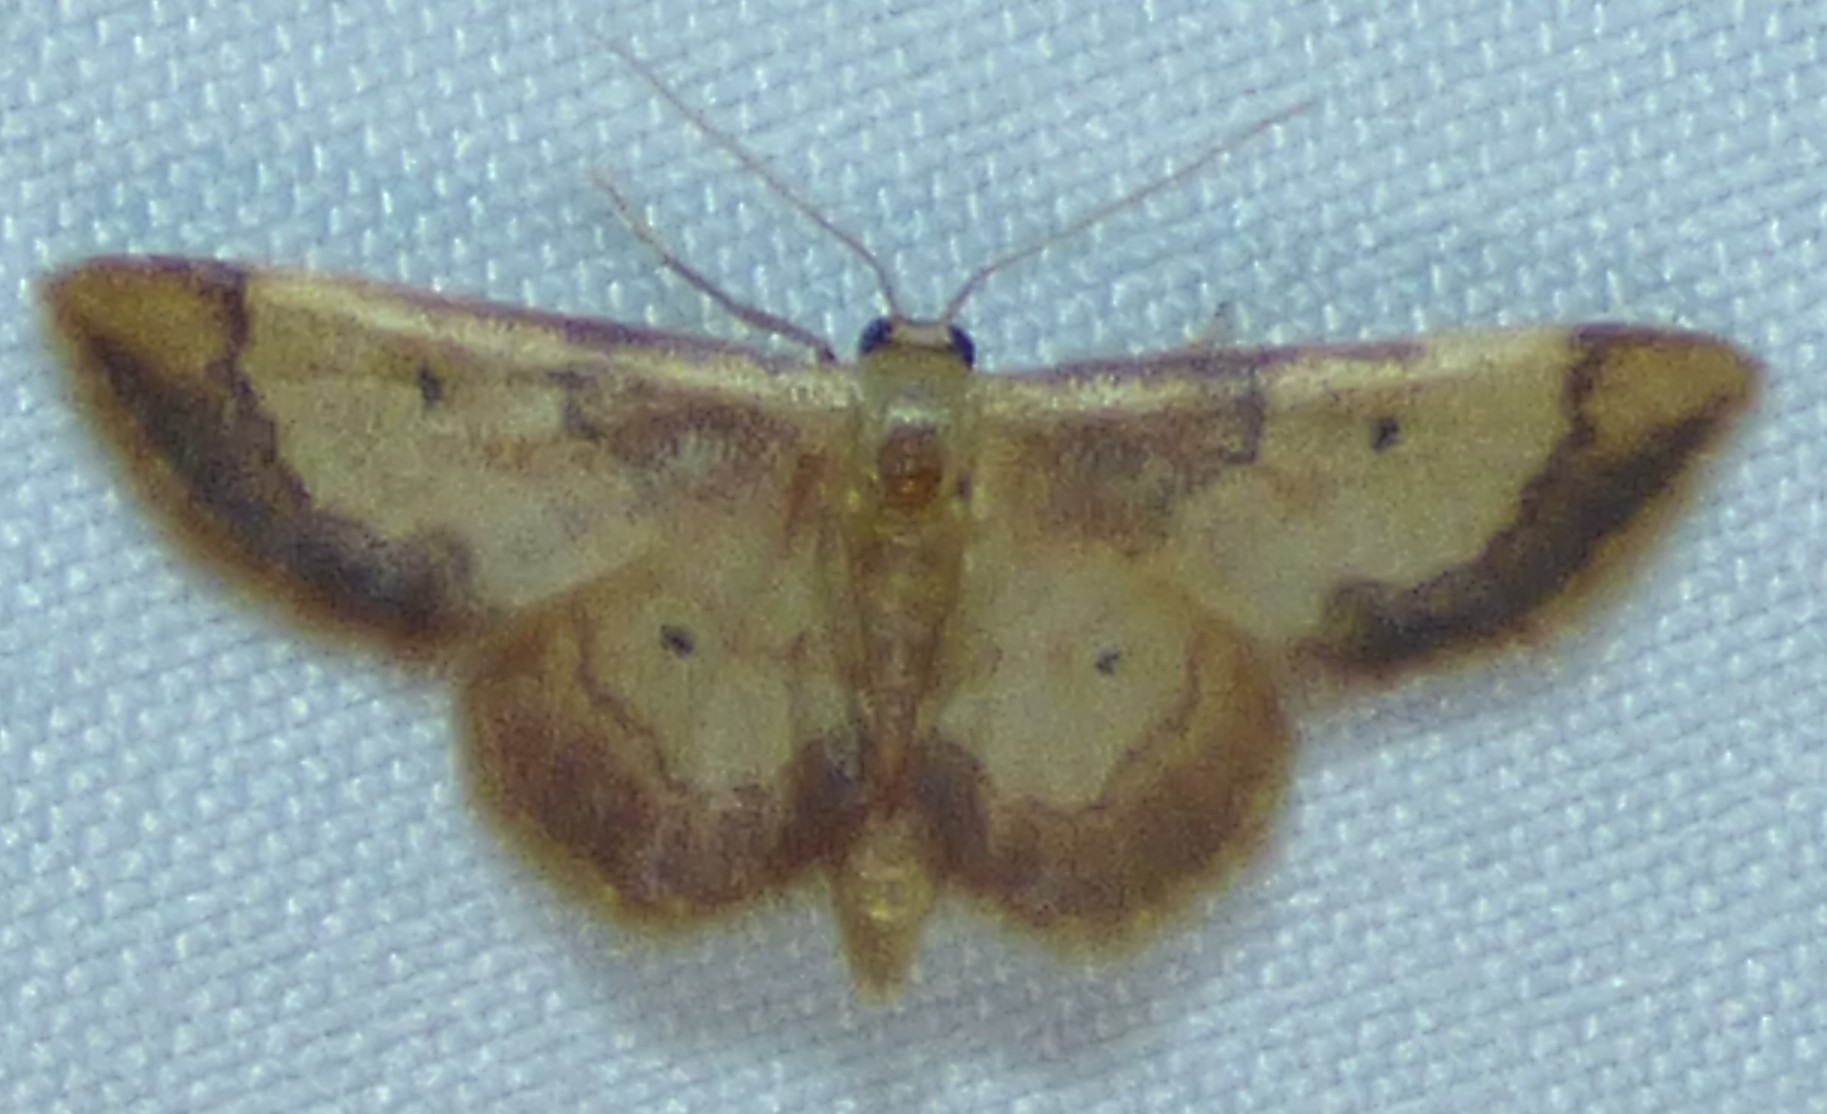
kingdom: Animalia
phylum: Arthropoda
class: Insecta
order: Lepidoptera
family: Geometridae
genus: Idaea
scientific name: Idaea demissaria
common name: Red-bordered wave
